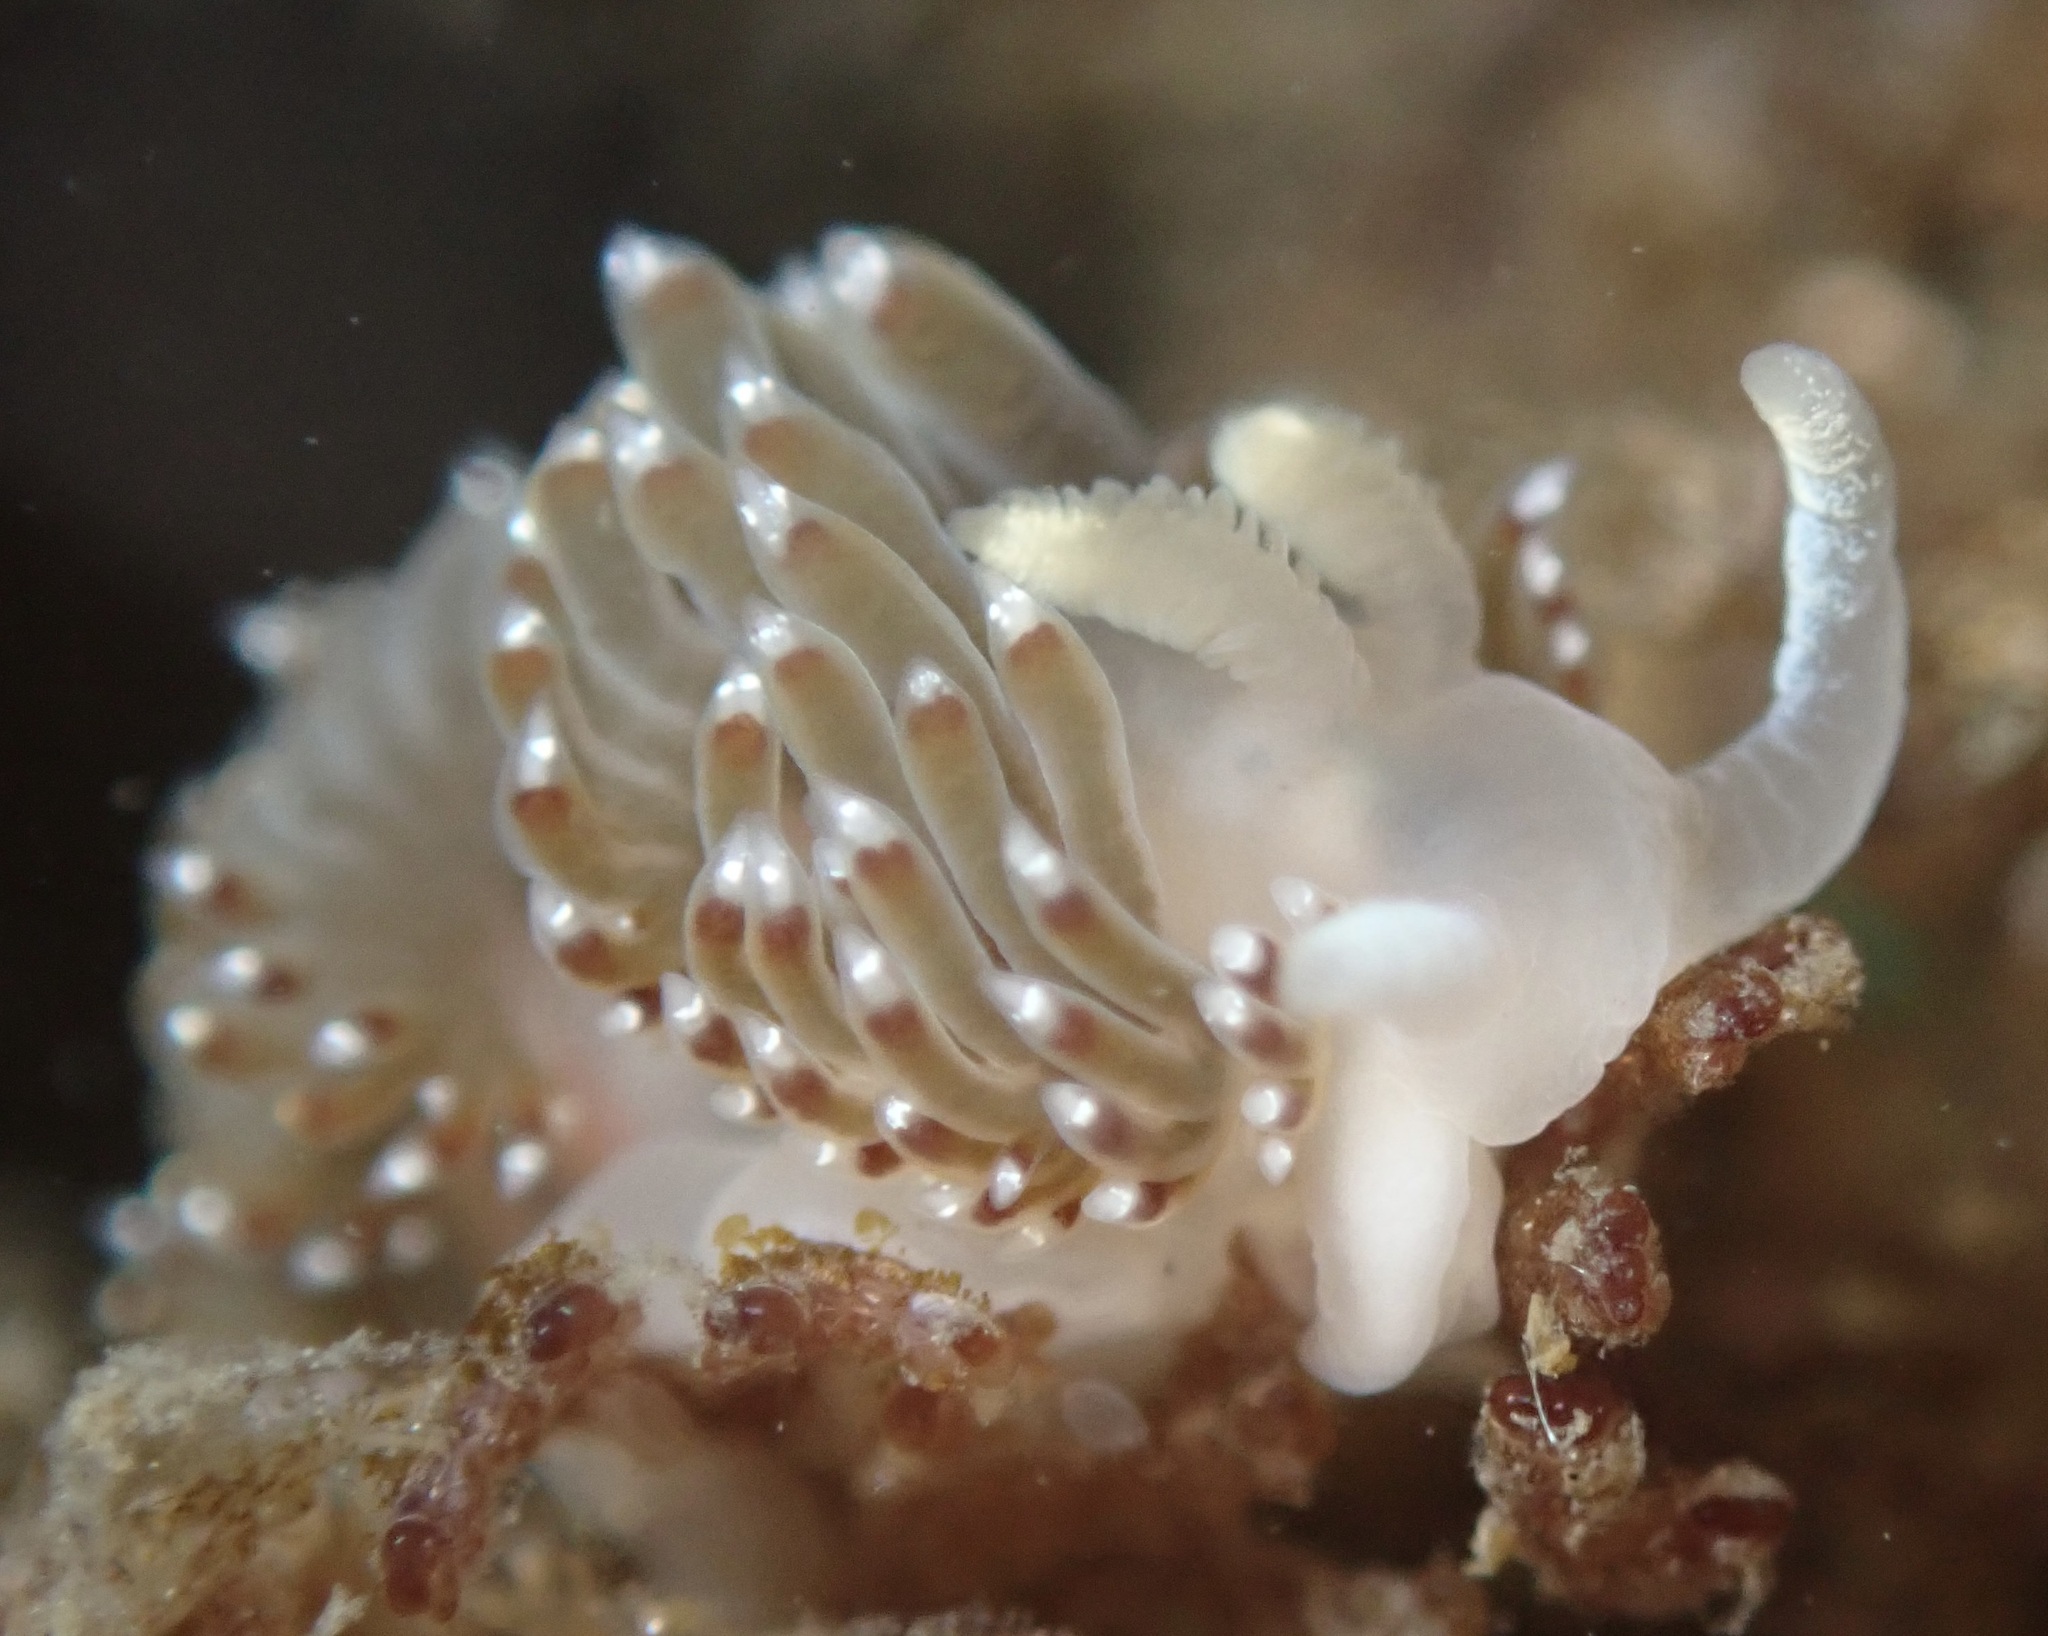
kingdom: Animalia
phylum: Mollusca
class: Gastropoda
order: Nudibranchia
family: Apataidae
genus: Apata
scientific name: Apata pricei
